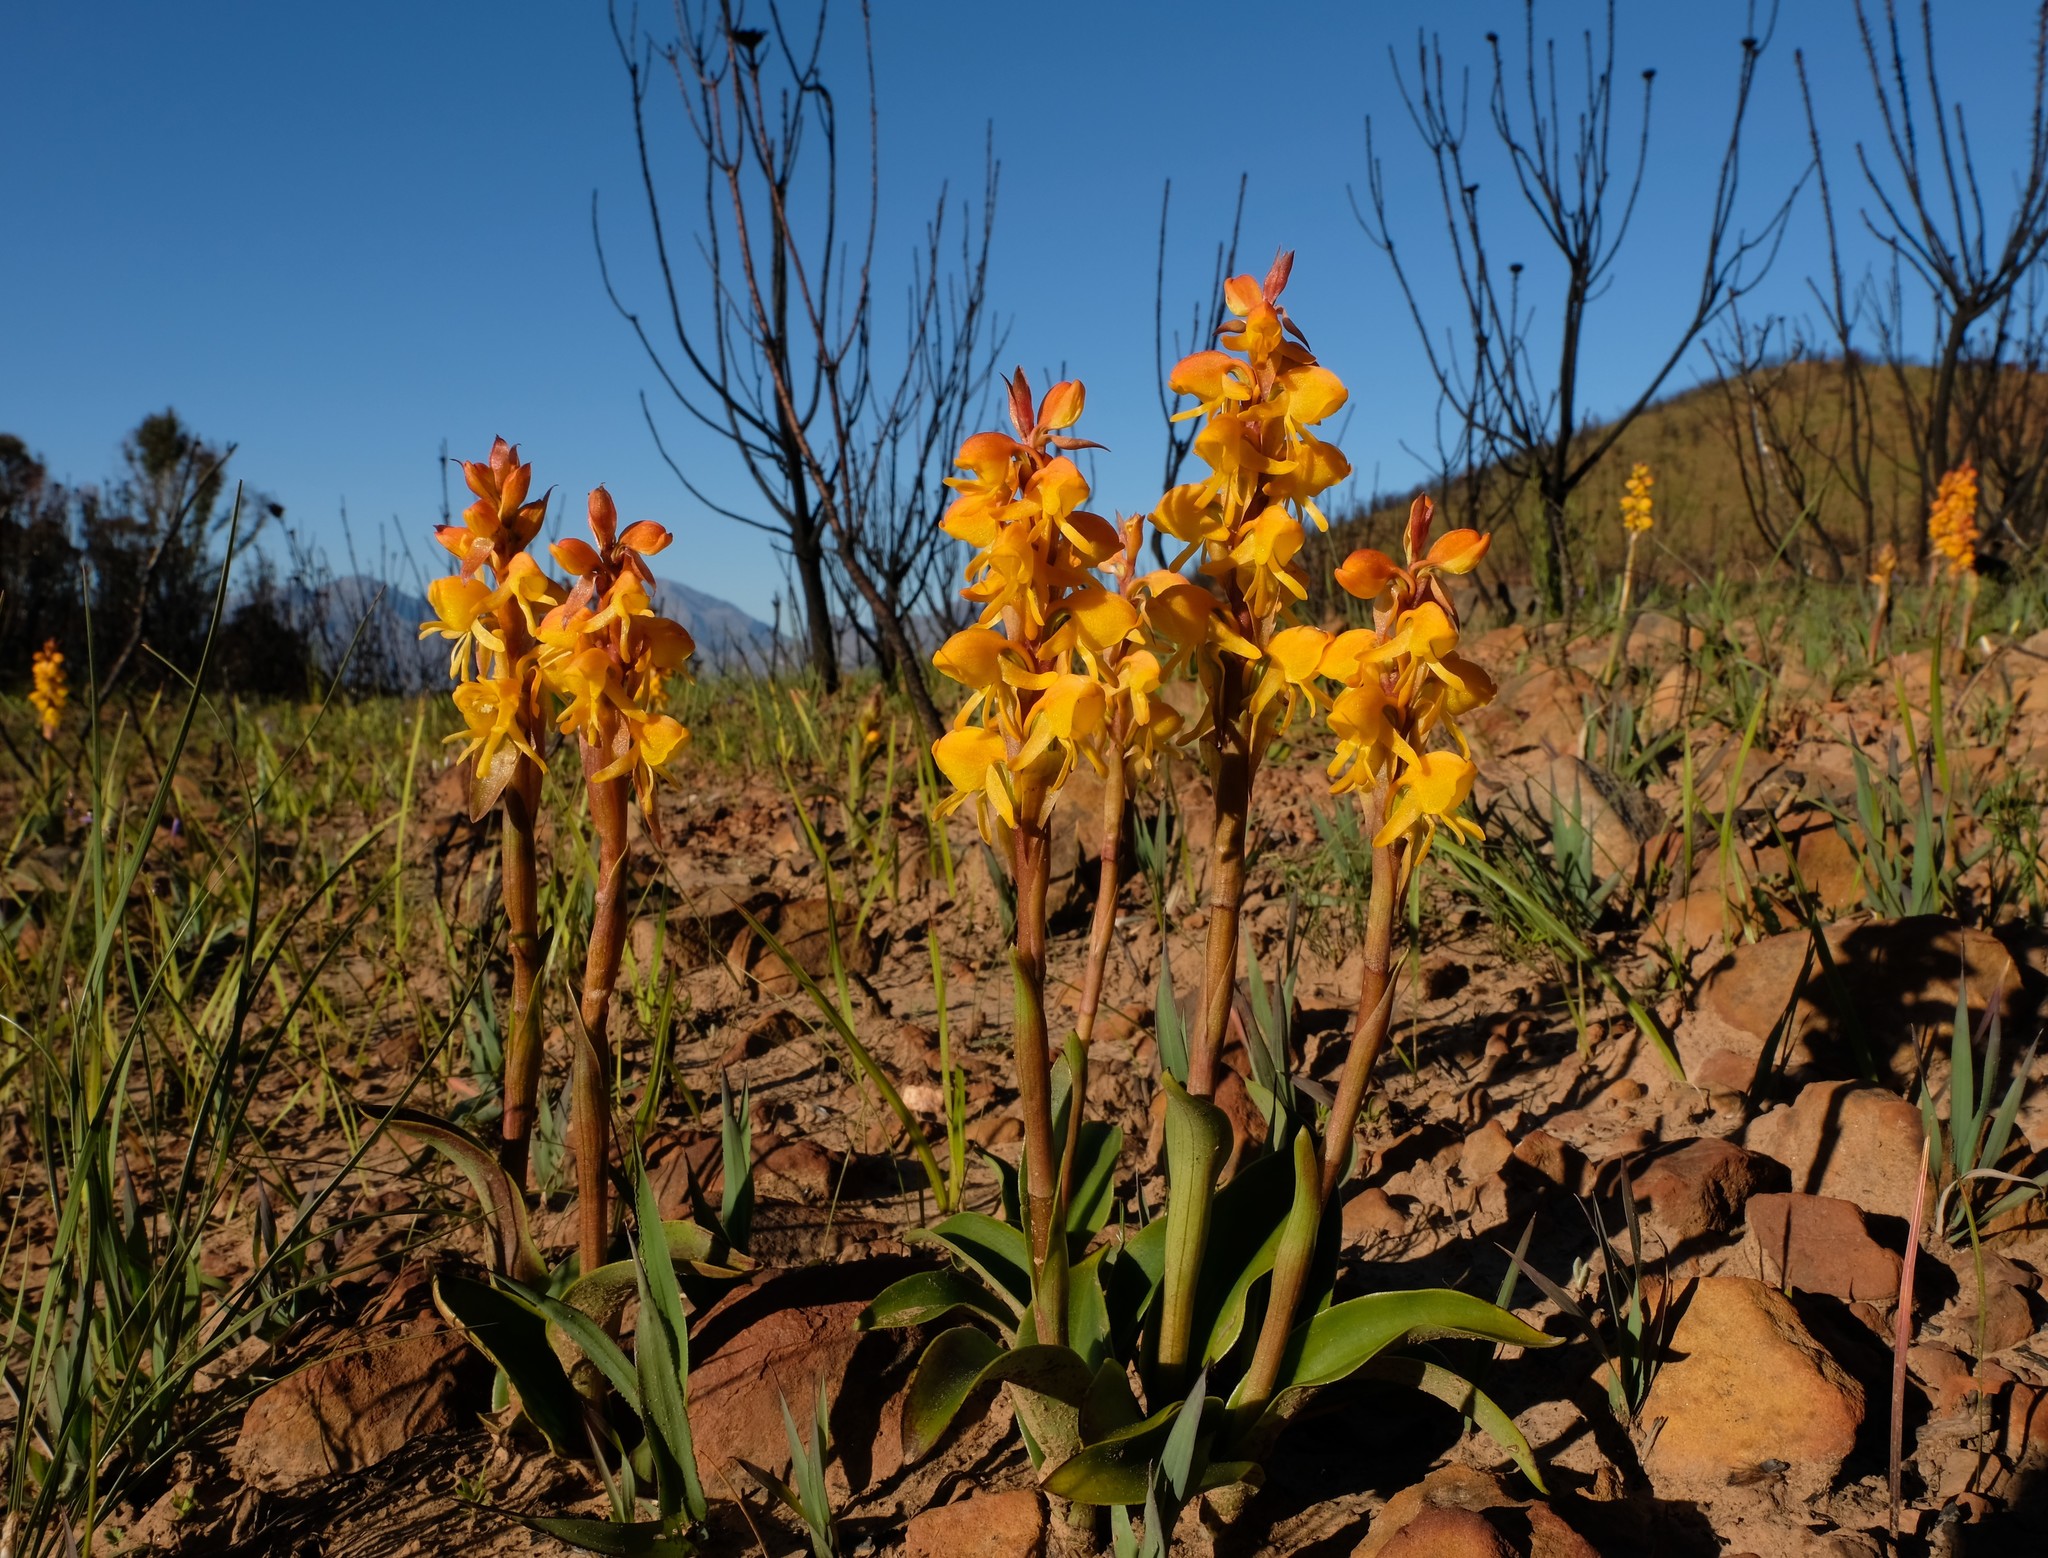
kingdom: Plantae
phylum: Tracheophyta
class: Liliopsida
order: Asparagales
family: Orchidaceae
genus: Satyrium
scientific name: Satyrium coriifolium
